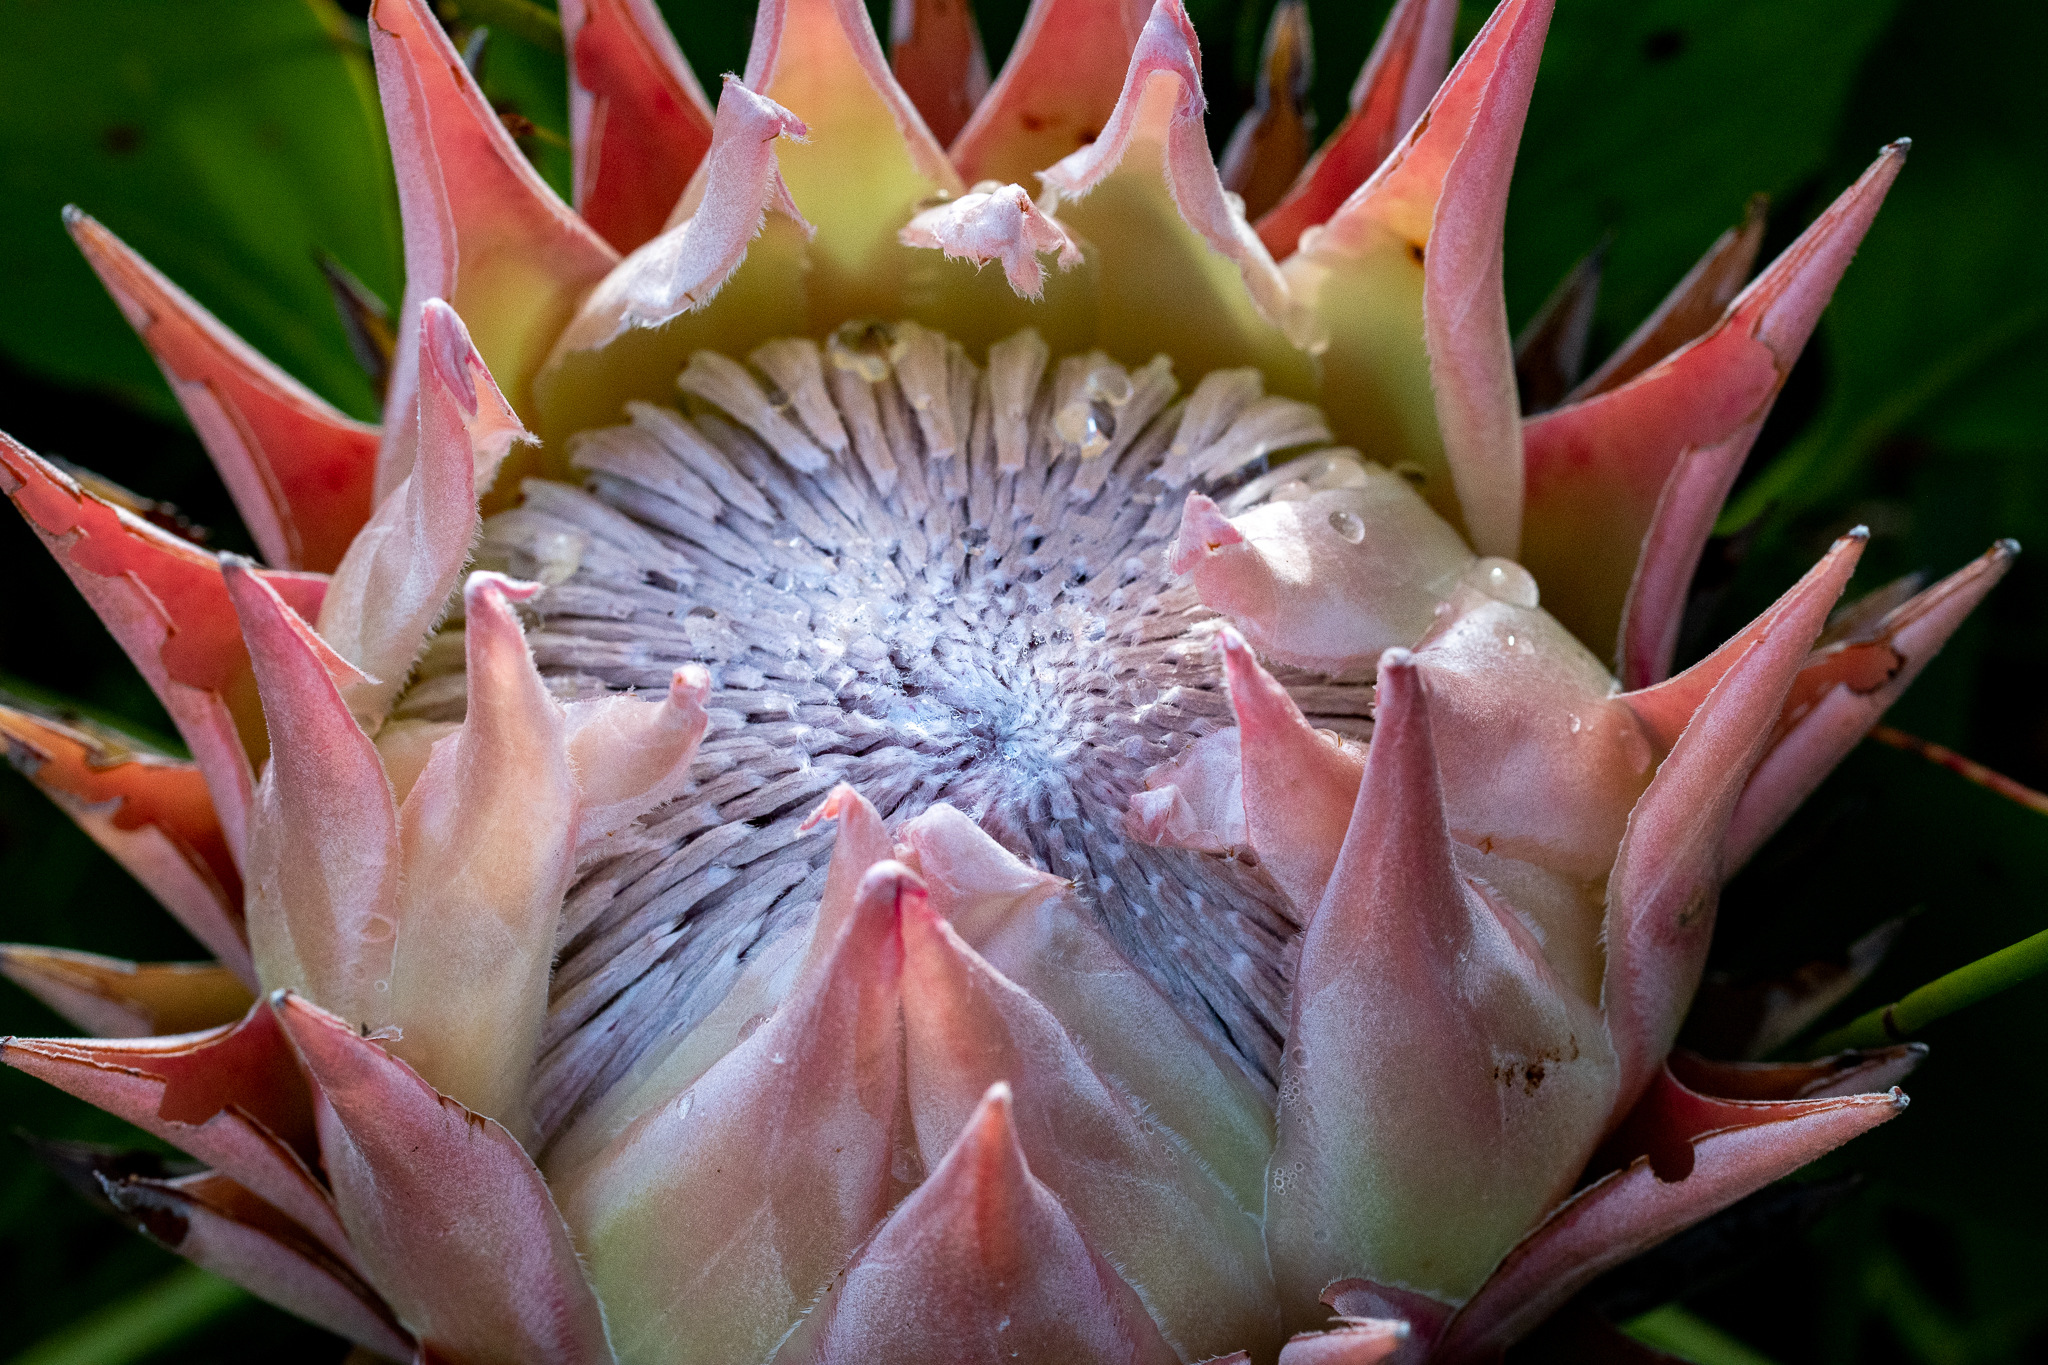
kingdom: Plantae
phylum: Tracheophyta
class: Magnoliopsida
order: Proteales
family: Proteaceae
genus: Protea
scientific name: Protea cynaroides
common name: King protea
